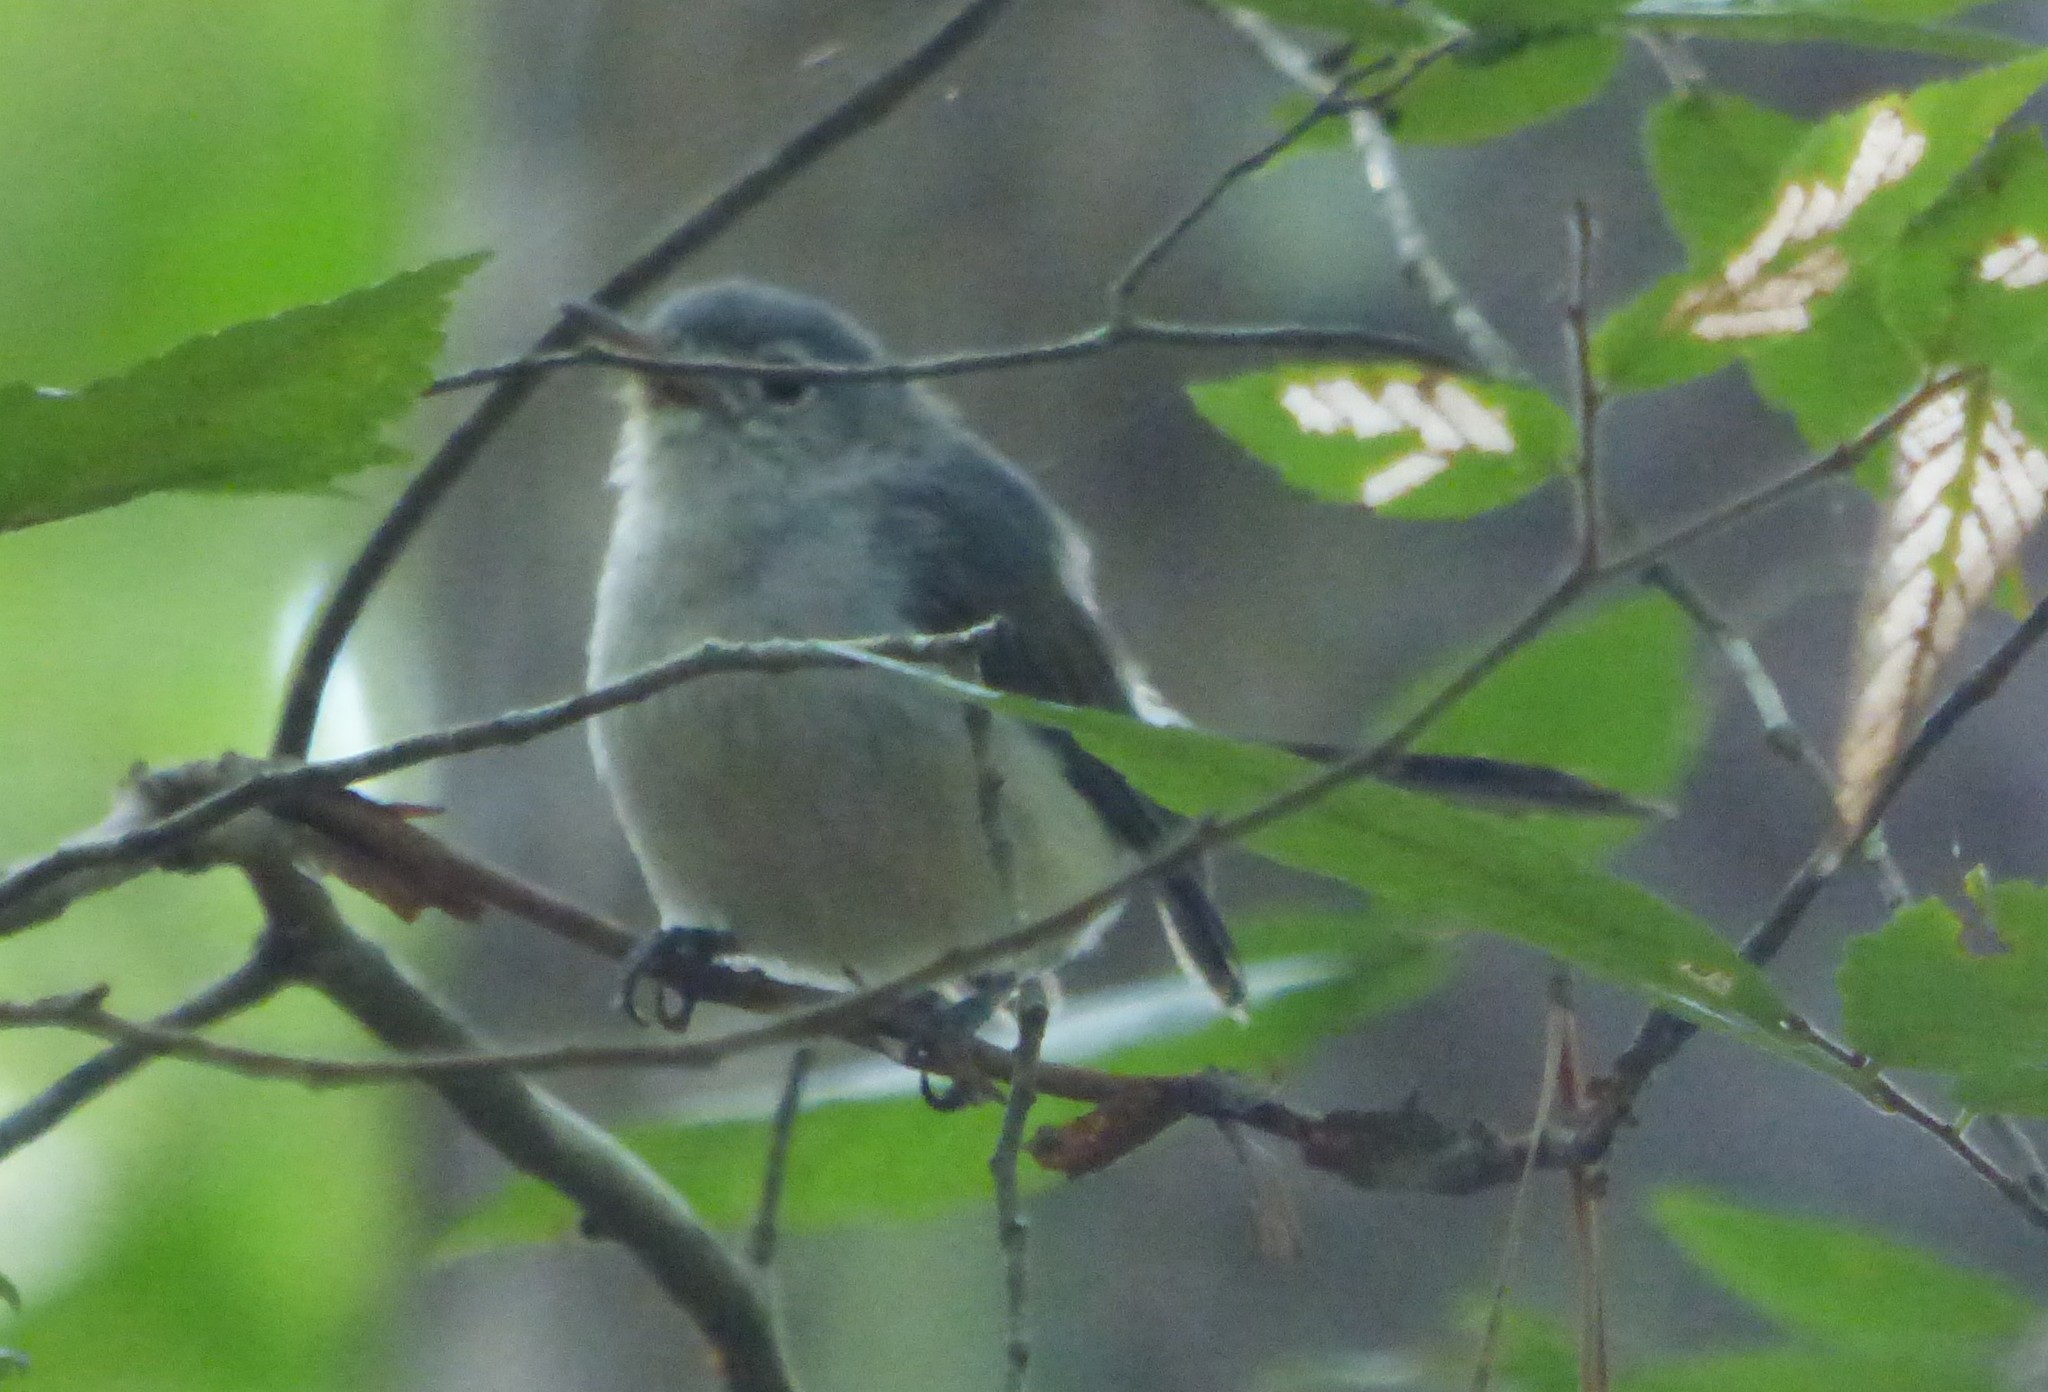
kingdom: Animalia
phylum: Chordata
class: Aves
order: Passeriformes
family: Polioptilidae
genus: Polioptila
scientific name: Polioptila caerulea
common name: Blue-gray gnatcatcher
